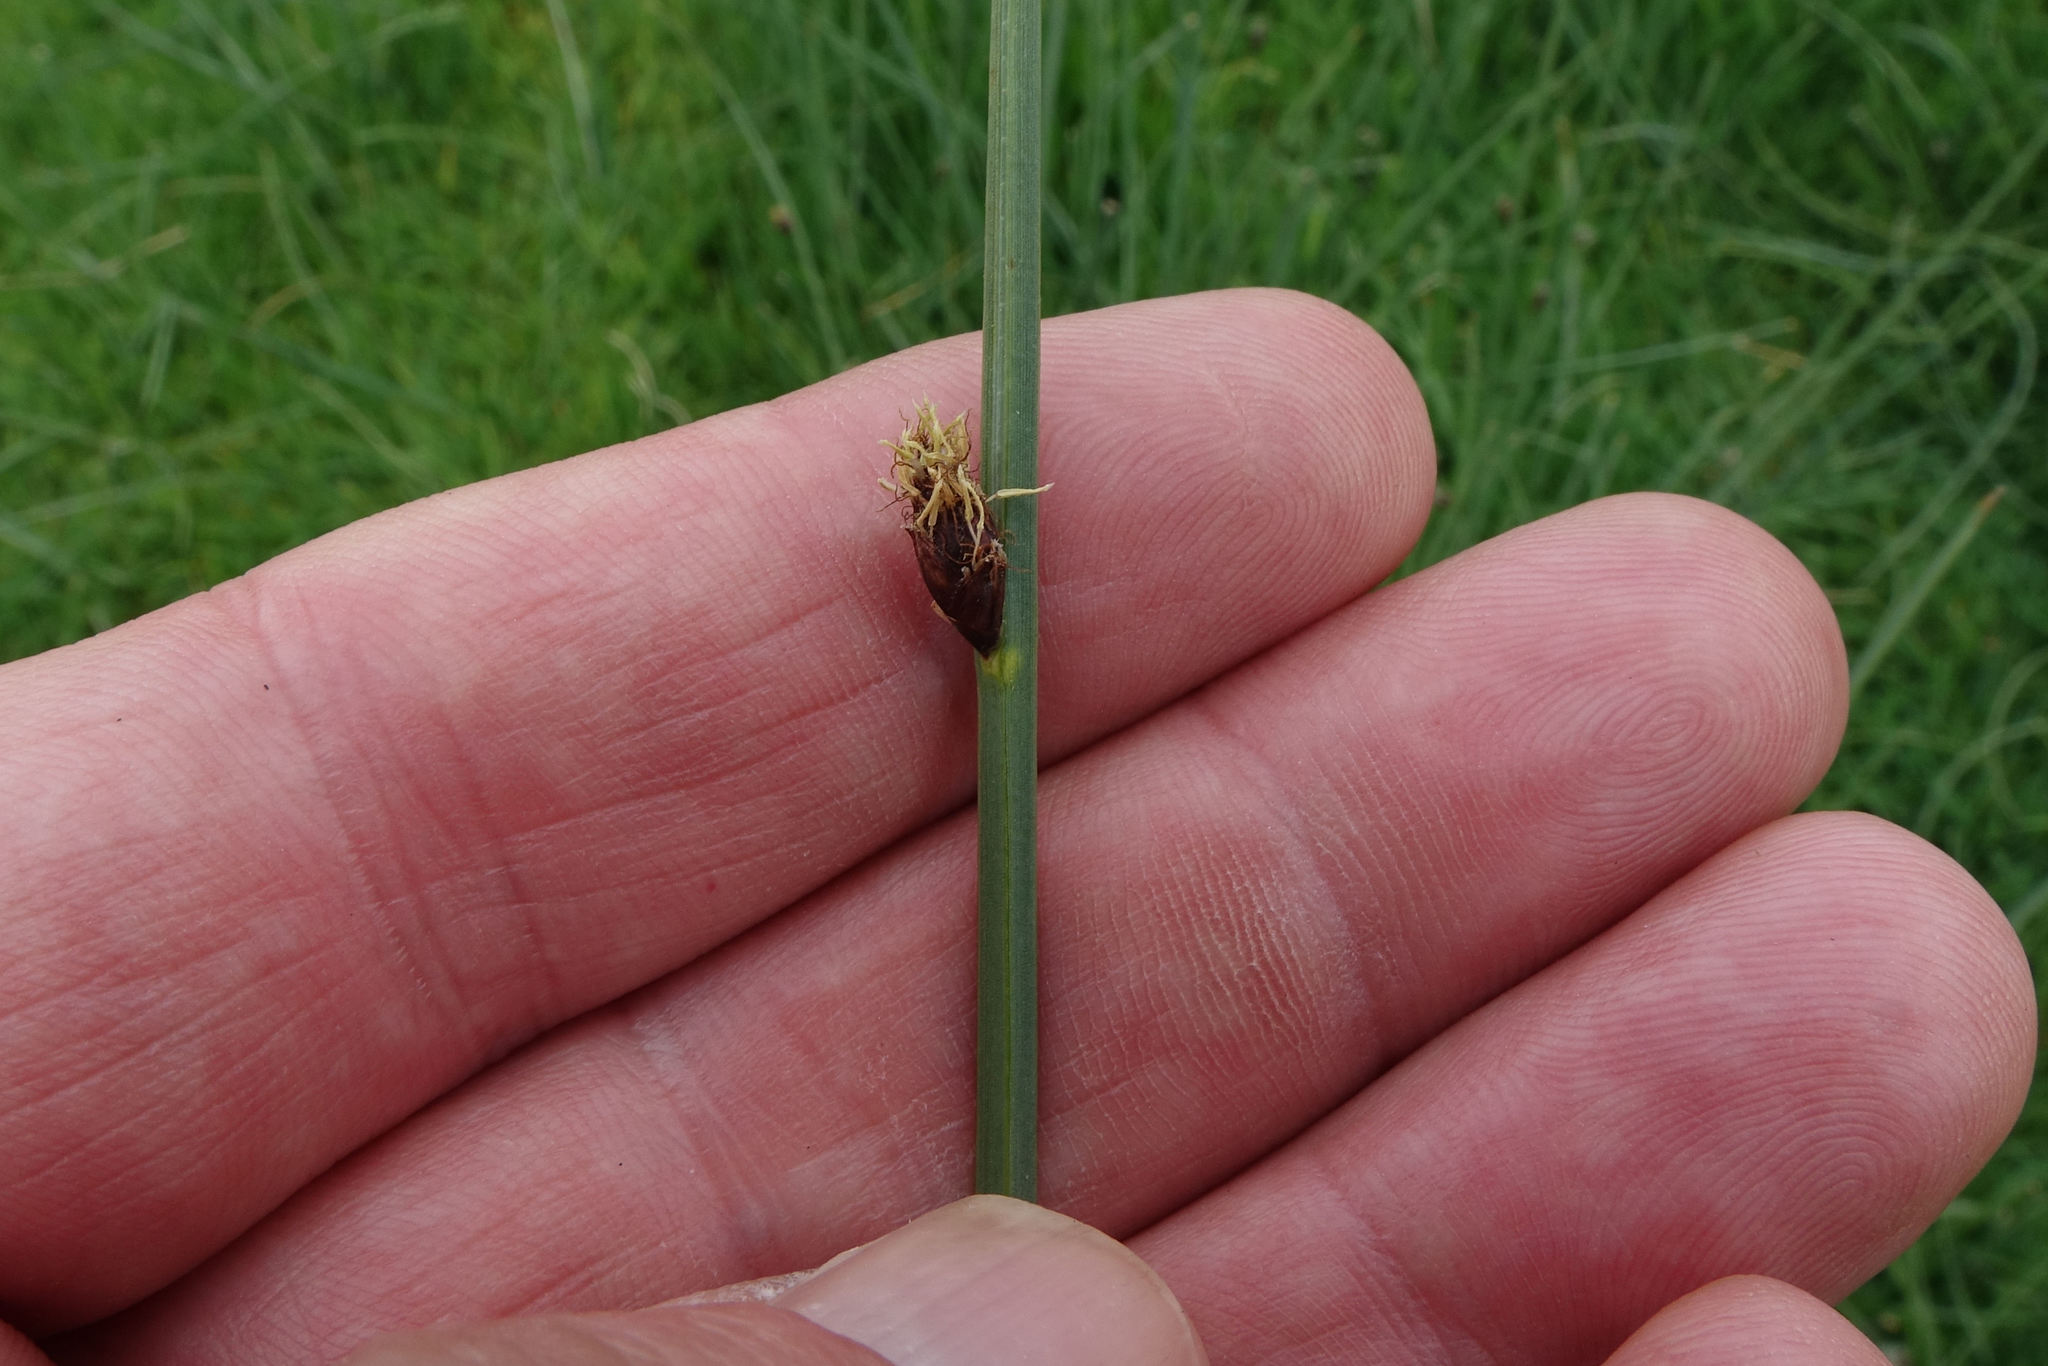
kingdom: Plantae
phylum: Tracheophyta
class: Liliopsida
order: Poales
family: Cyperaceae
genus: Schoenoplectus
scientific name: Schoenoplectus pungens
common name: Sharp club-rush
